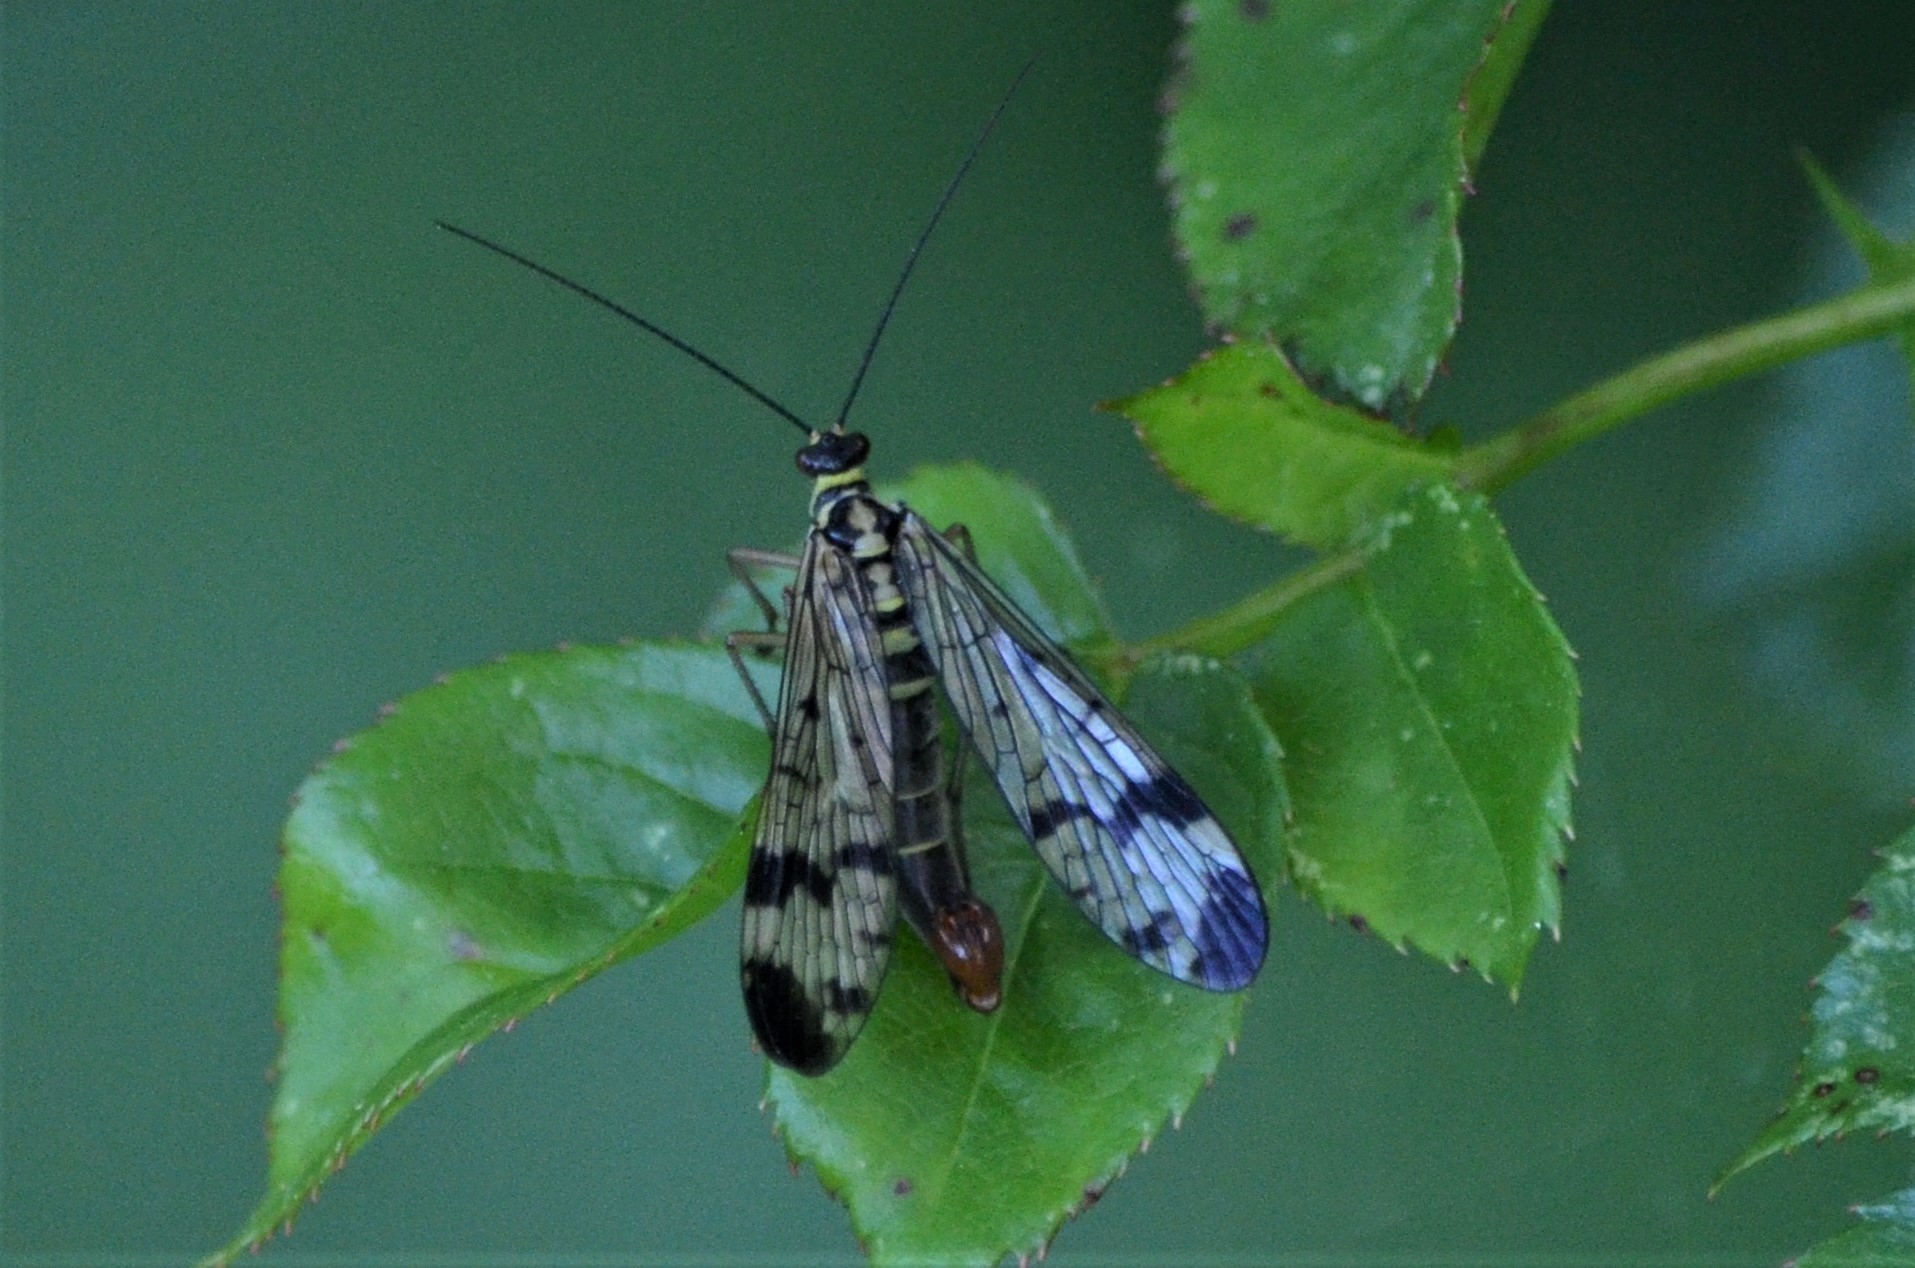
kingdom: Animalia
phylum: Arthropoda
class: Insecta
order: Mecoptera
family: Panorpidae
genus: Panorpa
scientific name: Panorpa communis
